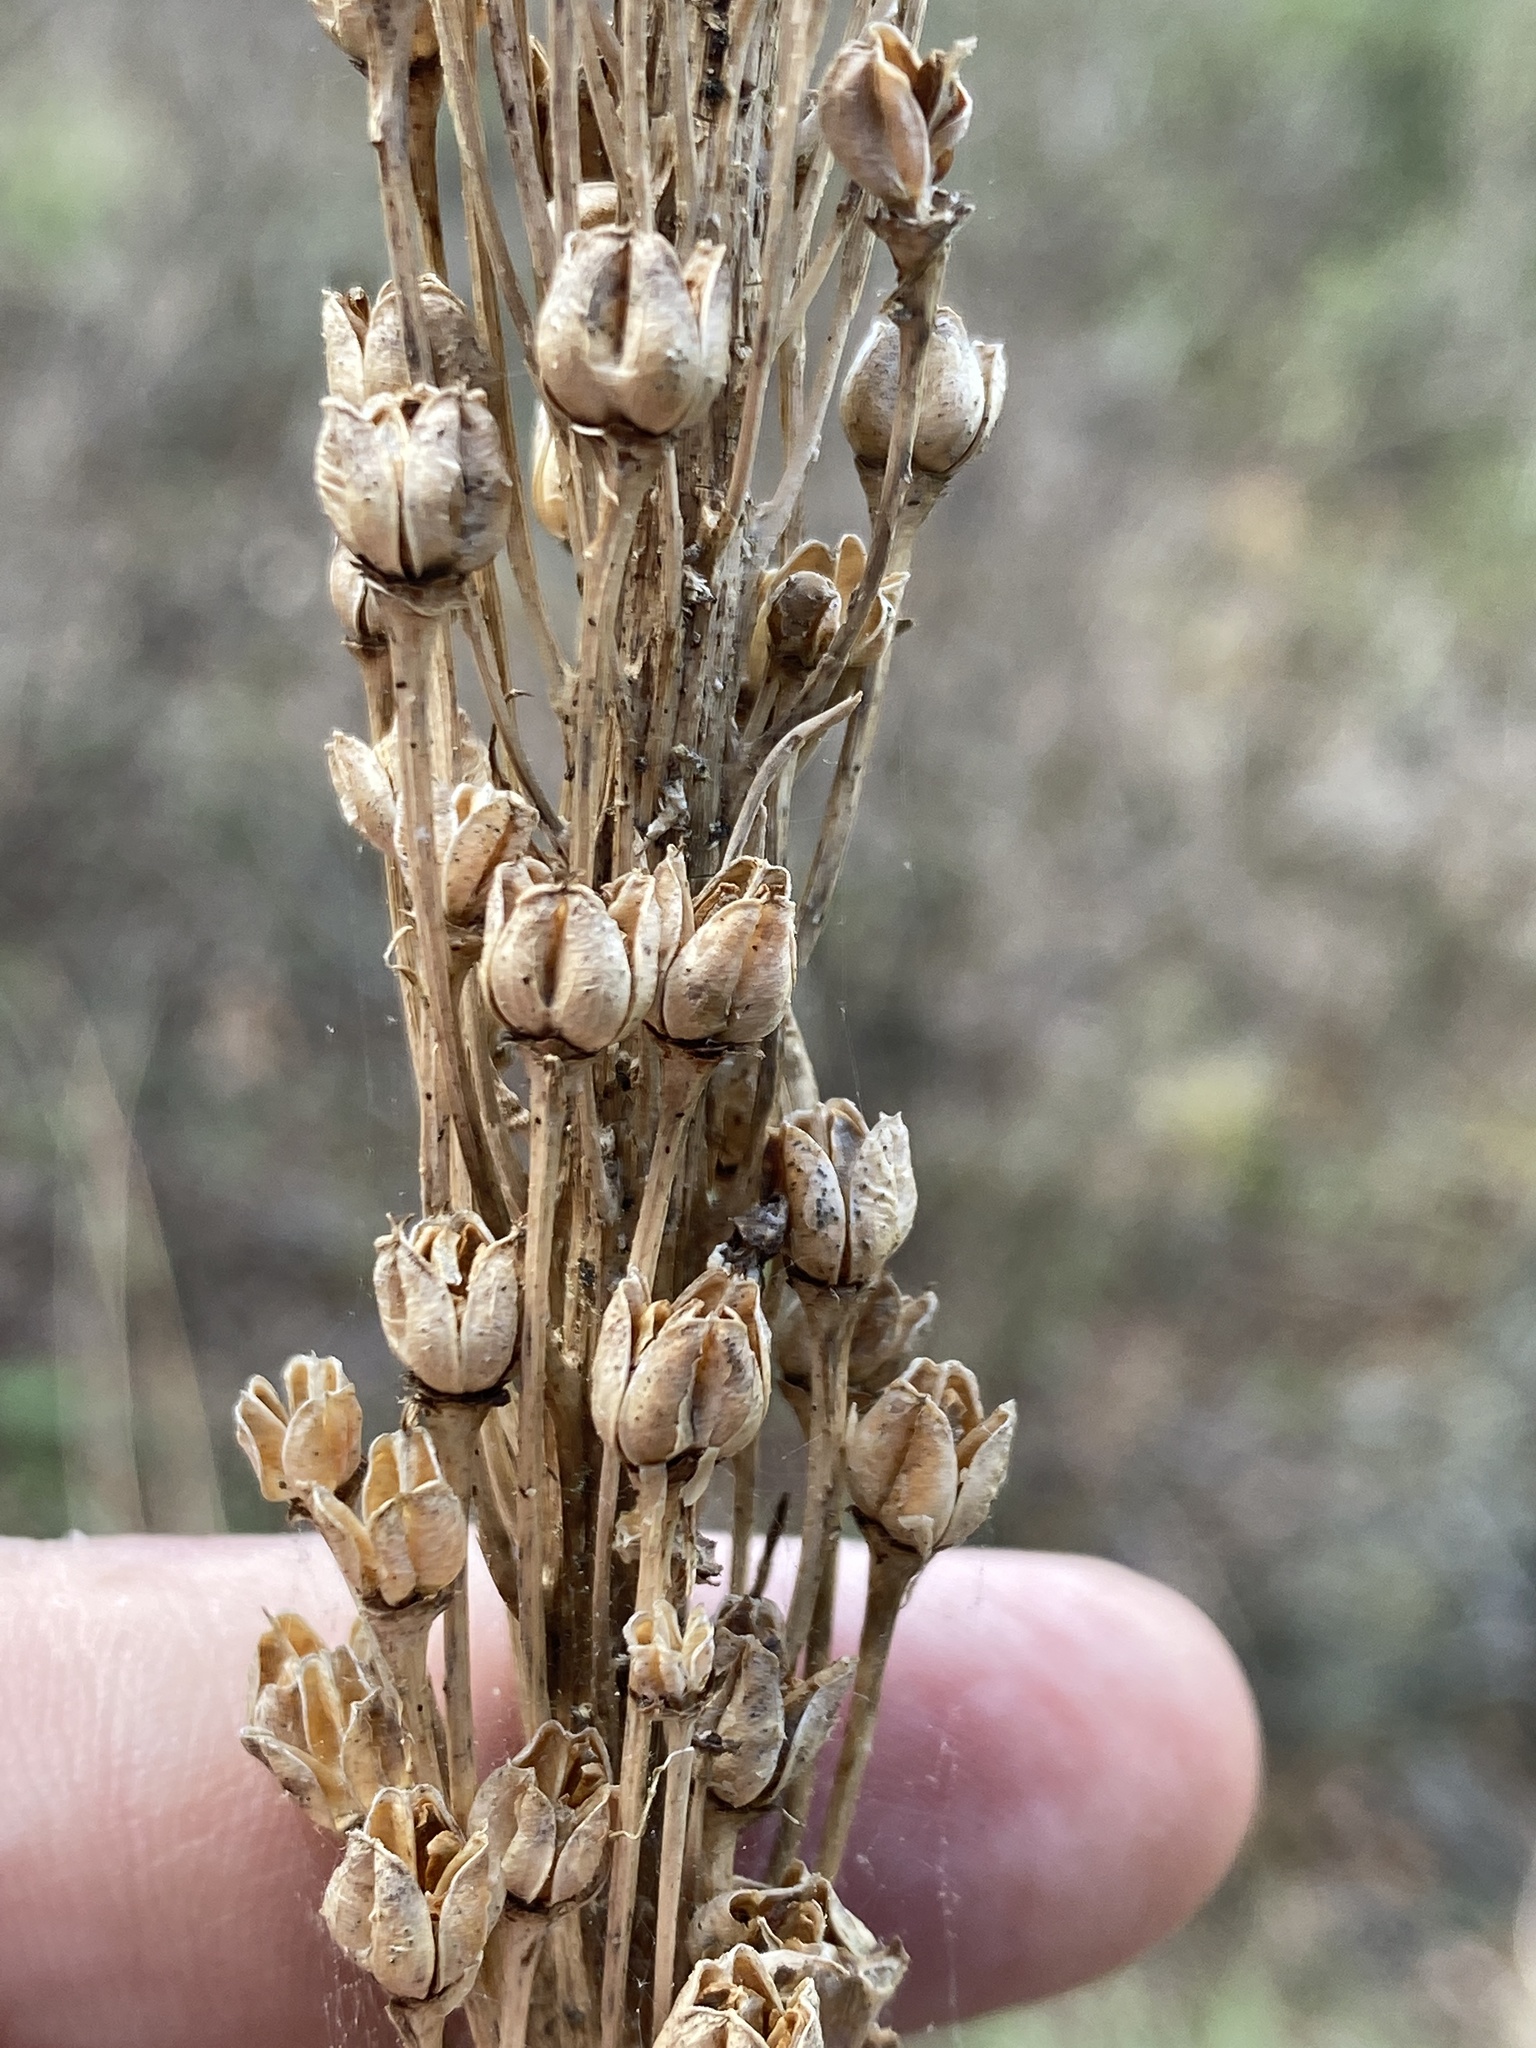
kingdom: Plantae
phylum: Tracheophyta
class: Liliopsida
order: Liliales
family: Melanthiaceae
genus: Xerophyllum
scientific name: Xerophyllum asphodeloides
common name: Mountain-asphodel
